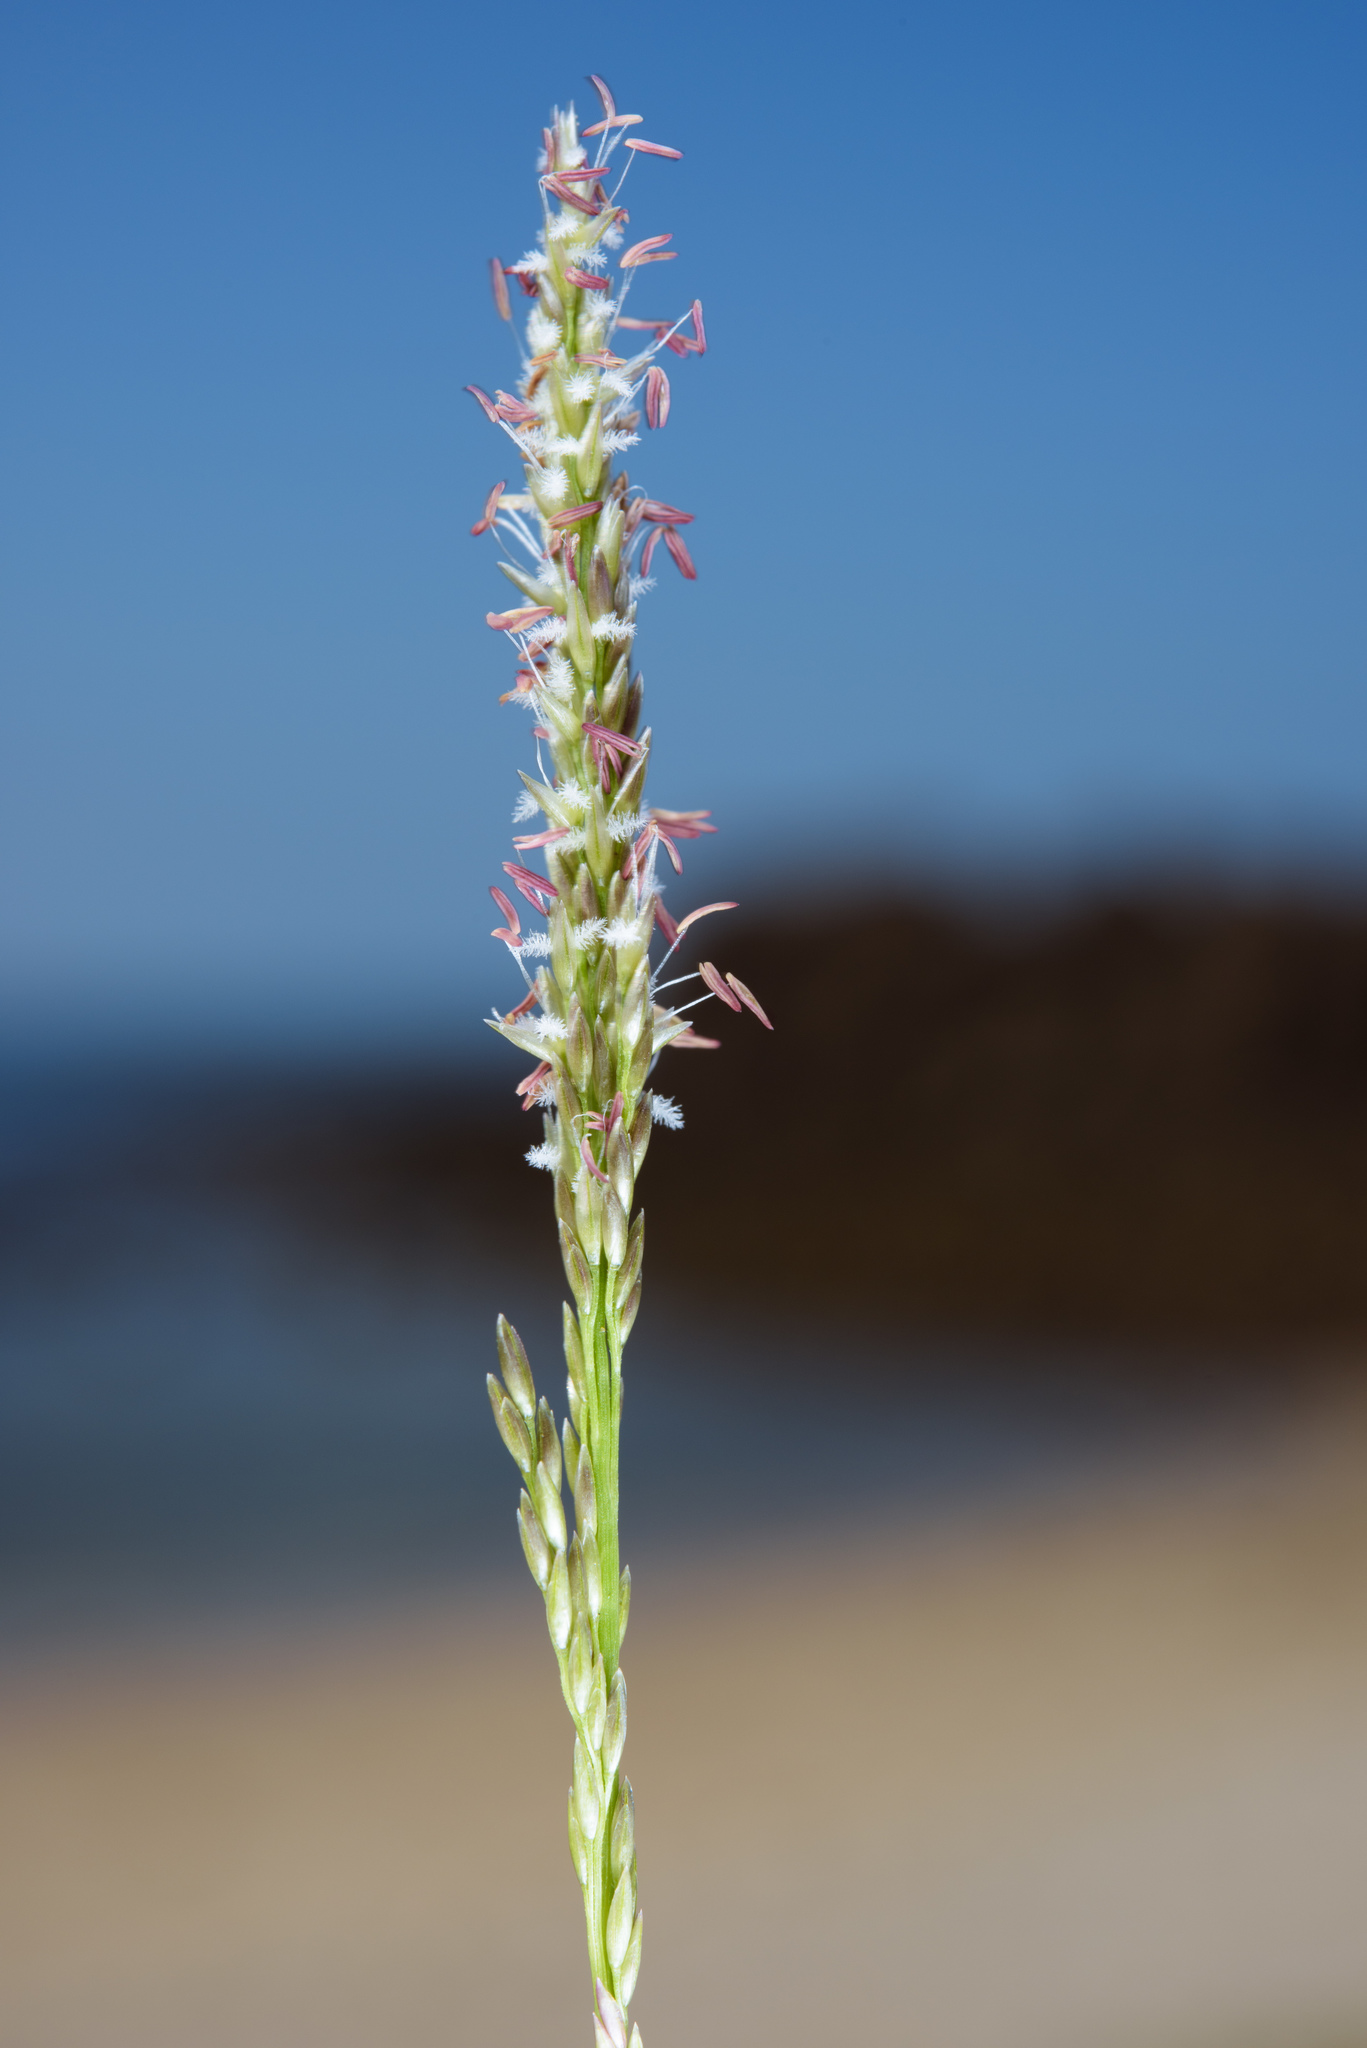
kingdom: Plantae
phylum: Tracheophyta
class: Liliopsida
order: Poales
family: Poaceae
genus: Sporobolus
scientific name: Sporobolus virginicus
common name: Beach dropseed
